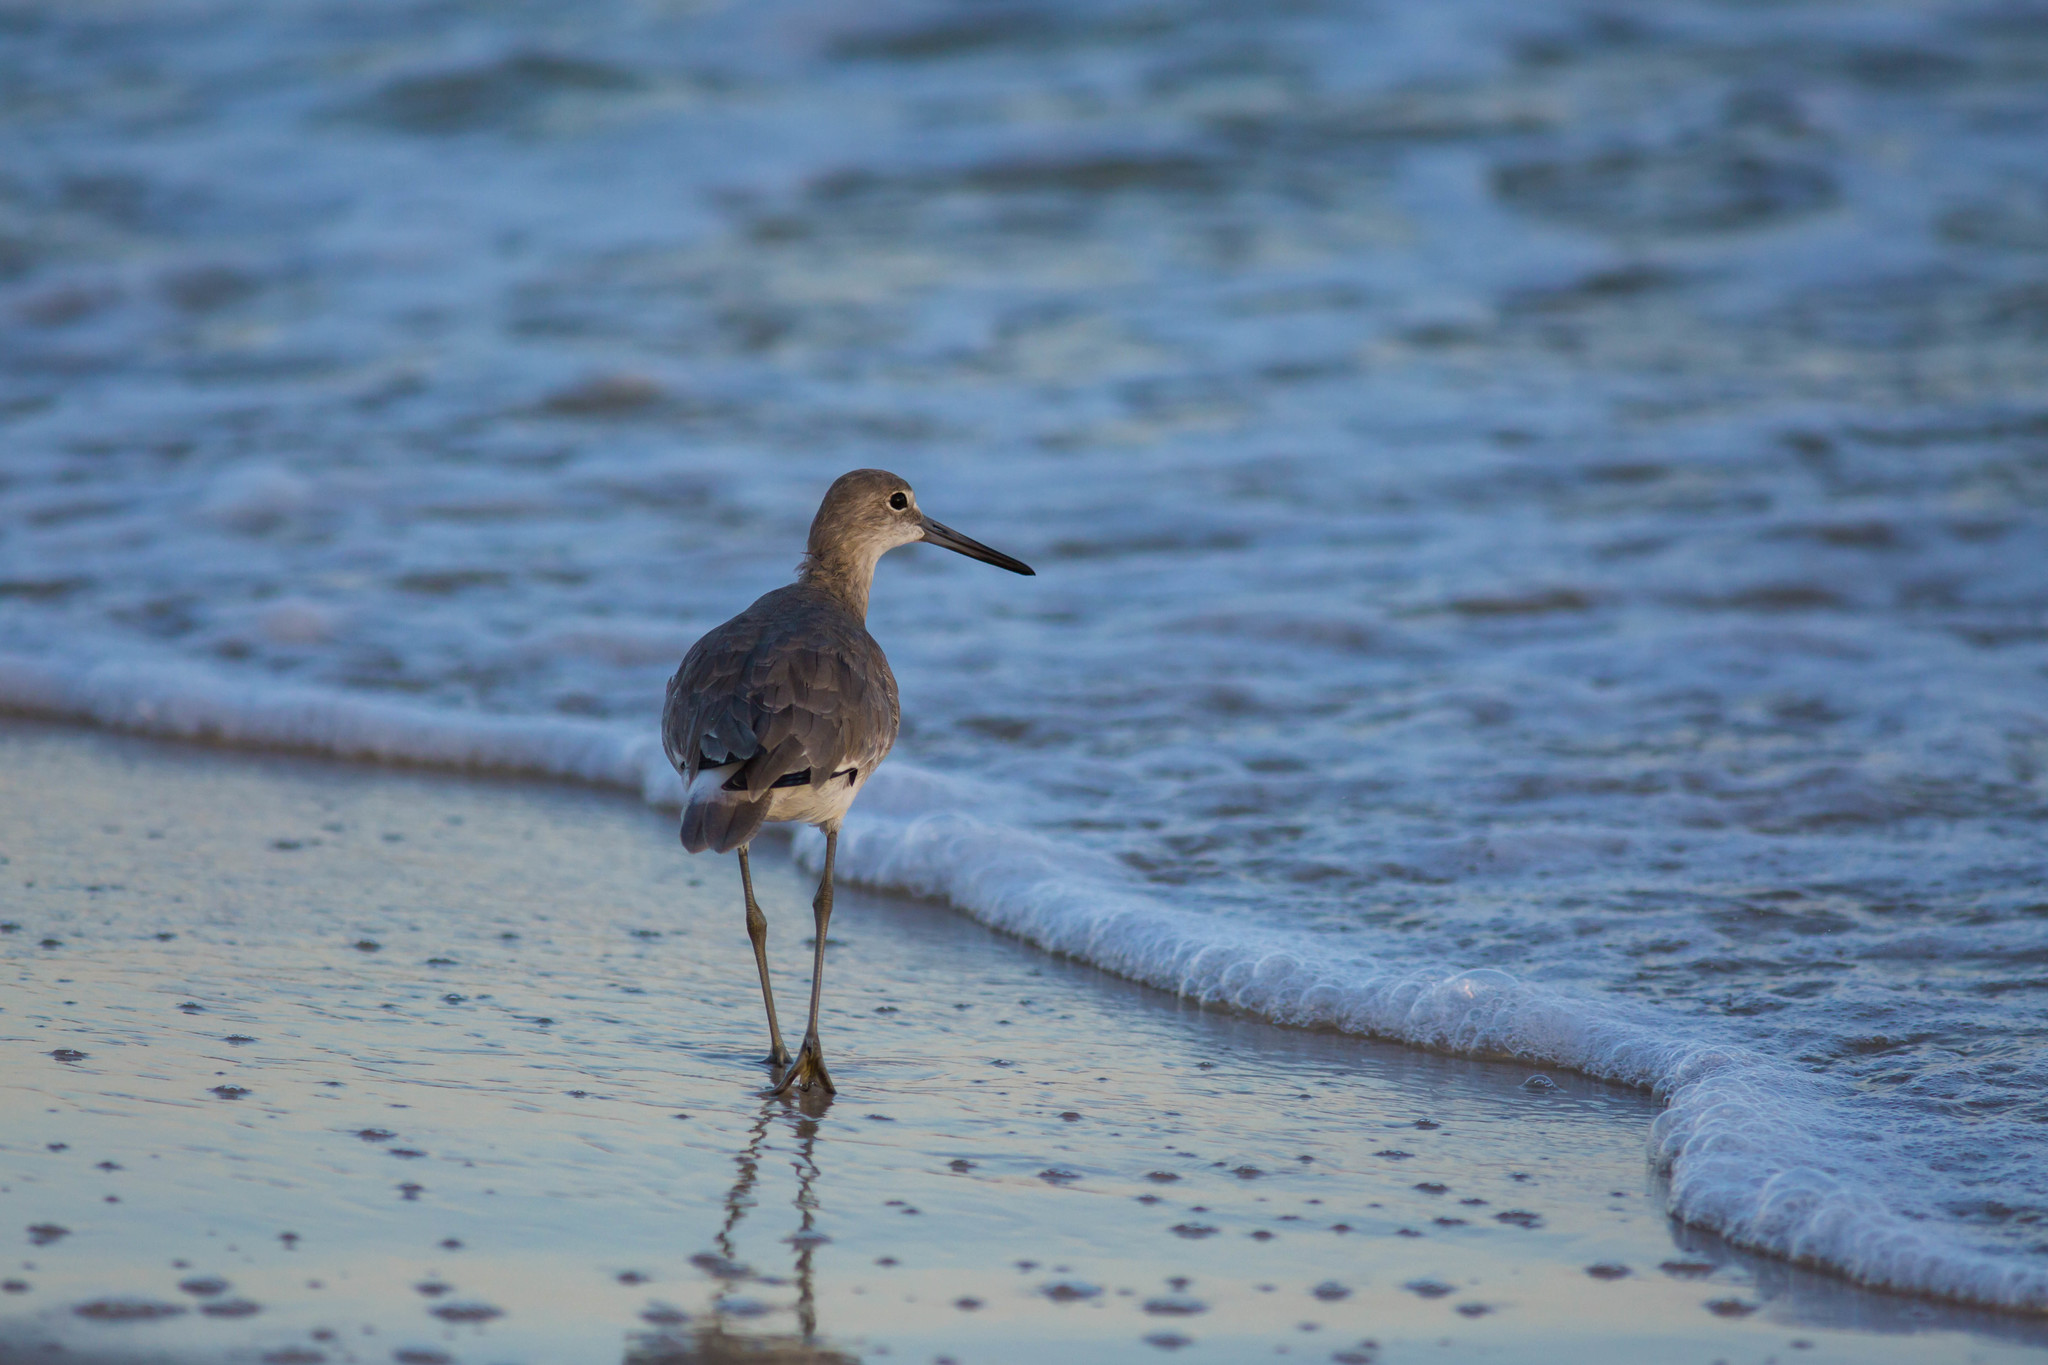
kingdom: Animalia
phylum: Chordata
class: Aves
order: Charadriiformes
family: Scolopacidae
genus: Tringa
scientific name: Tringa semipalmata
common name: Willet
